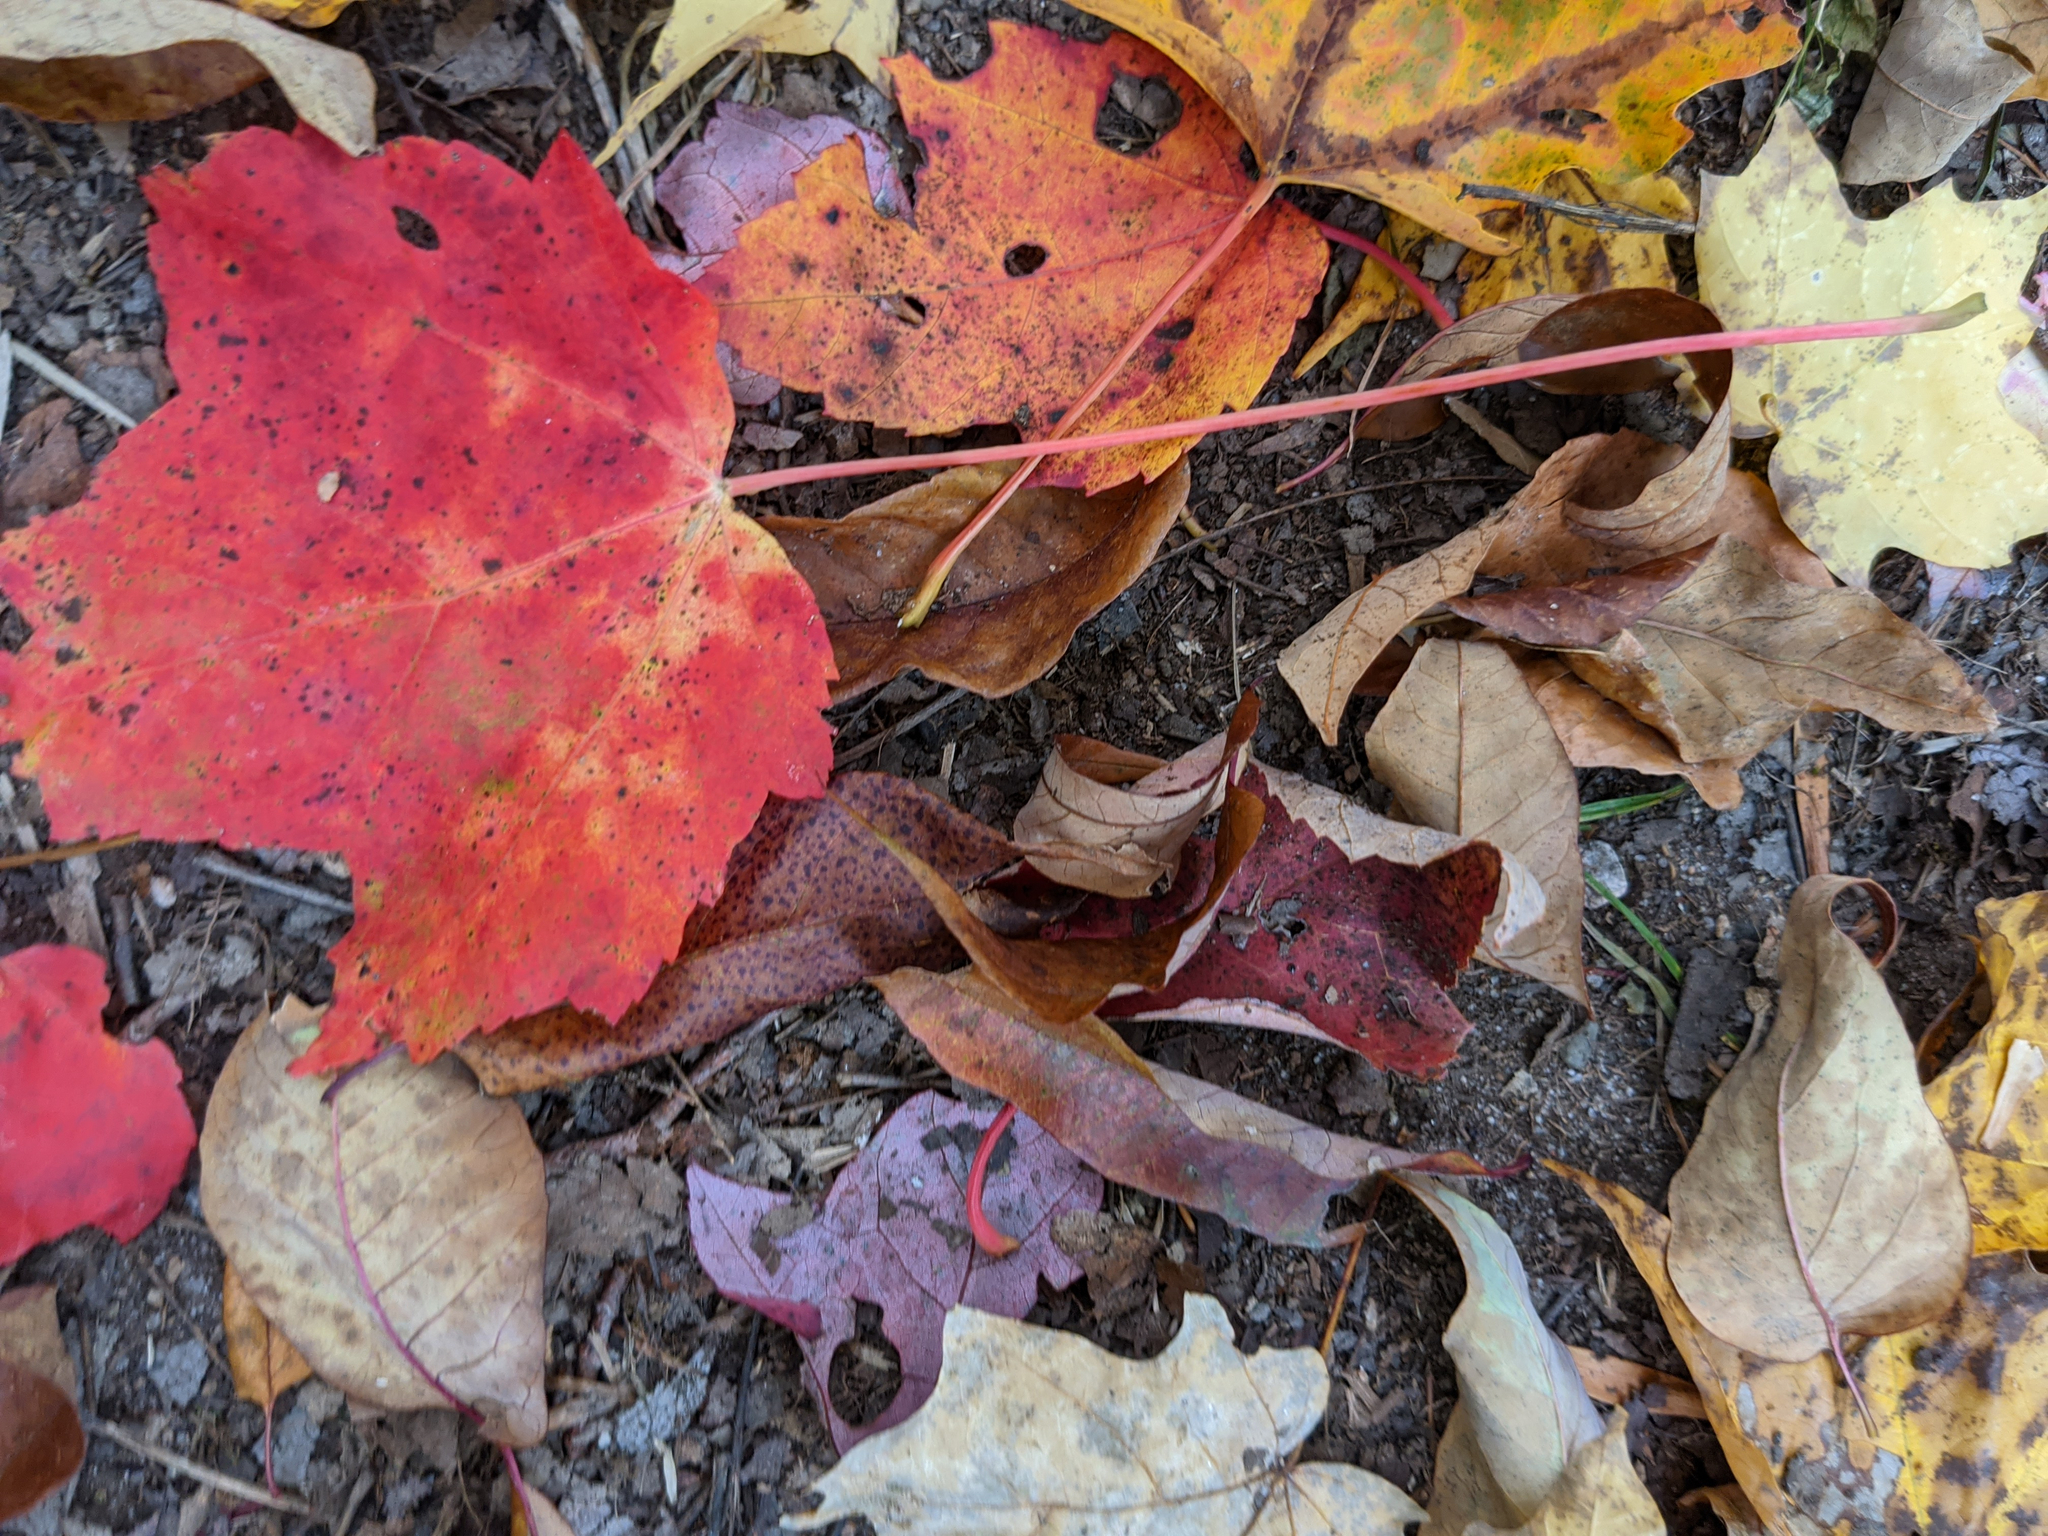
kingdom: Plantae
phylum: Tracheophyta
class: Magnoliopsida
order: Sapindales
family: Sapindaceae
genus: Acer
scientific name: Acer rubrum
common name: Red maple
